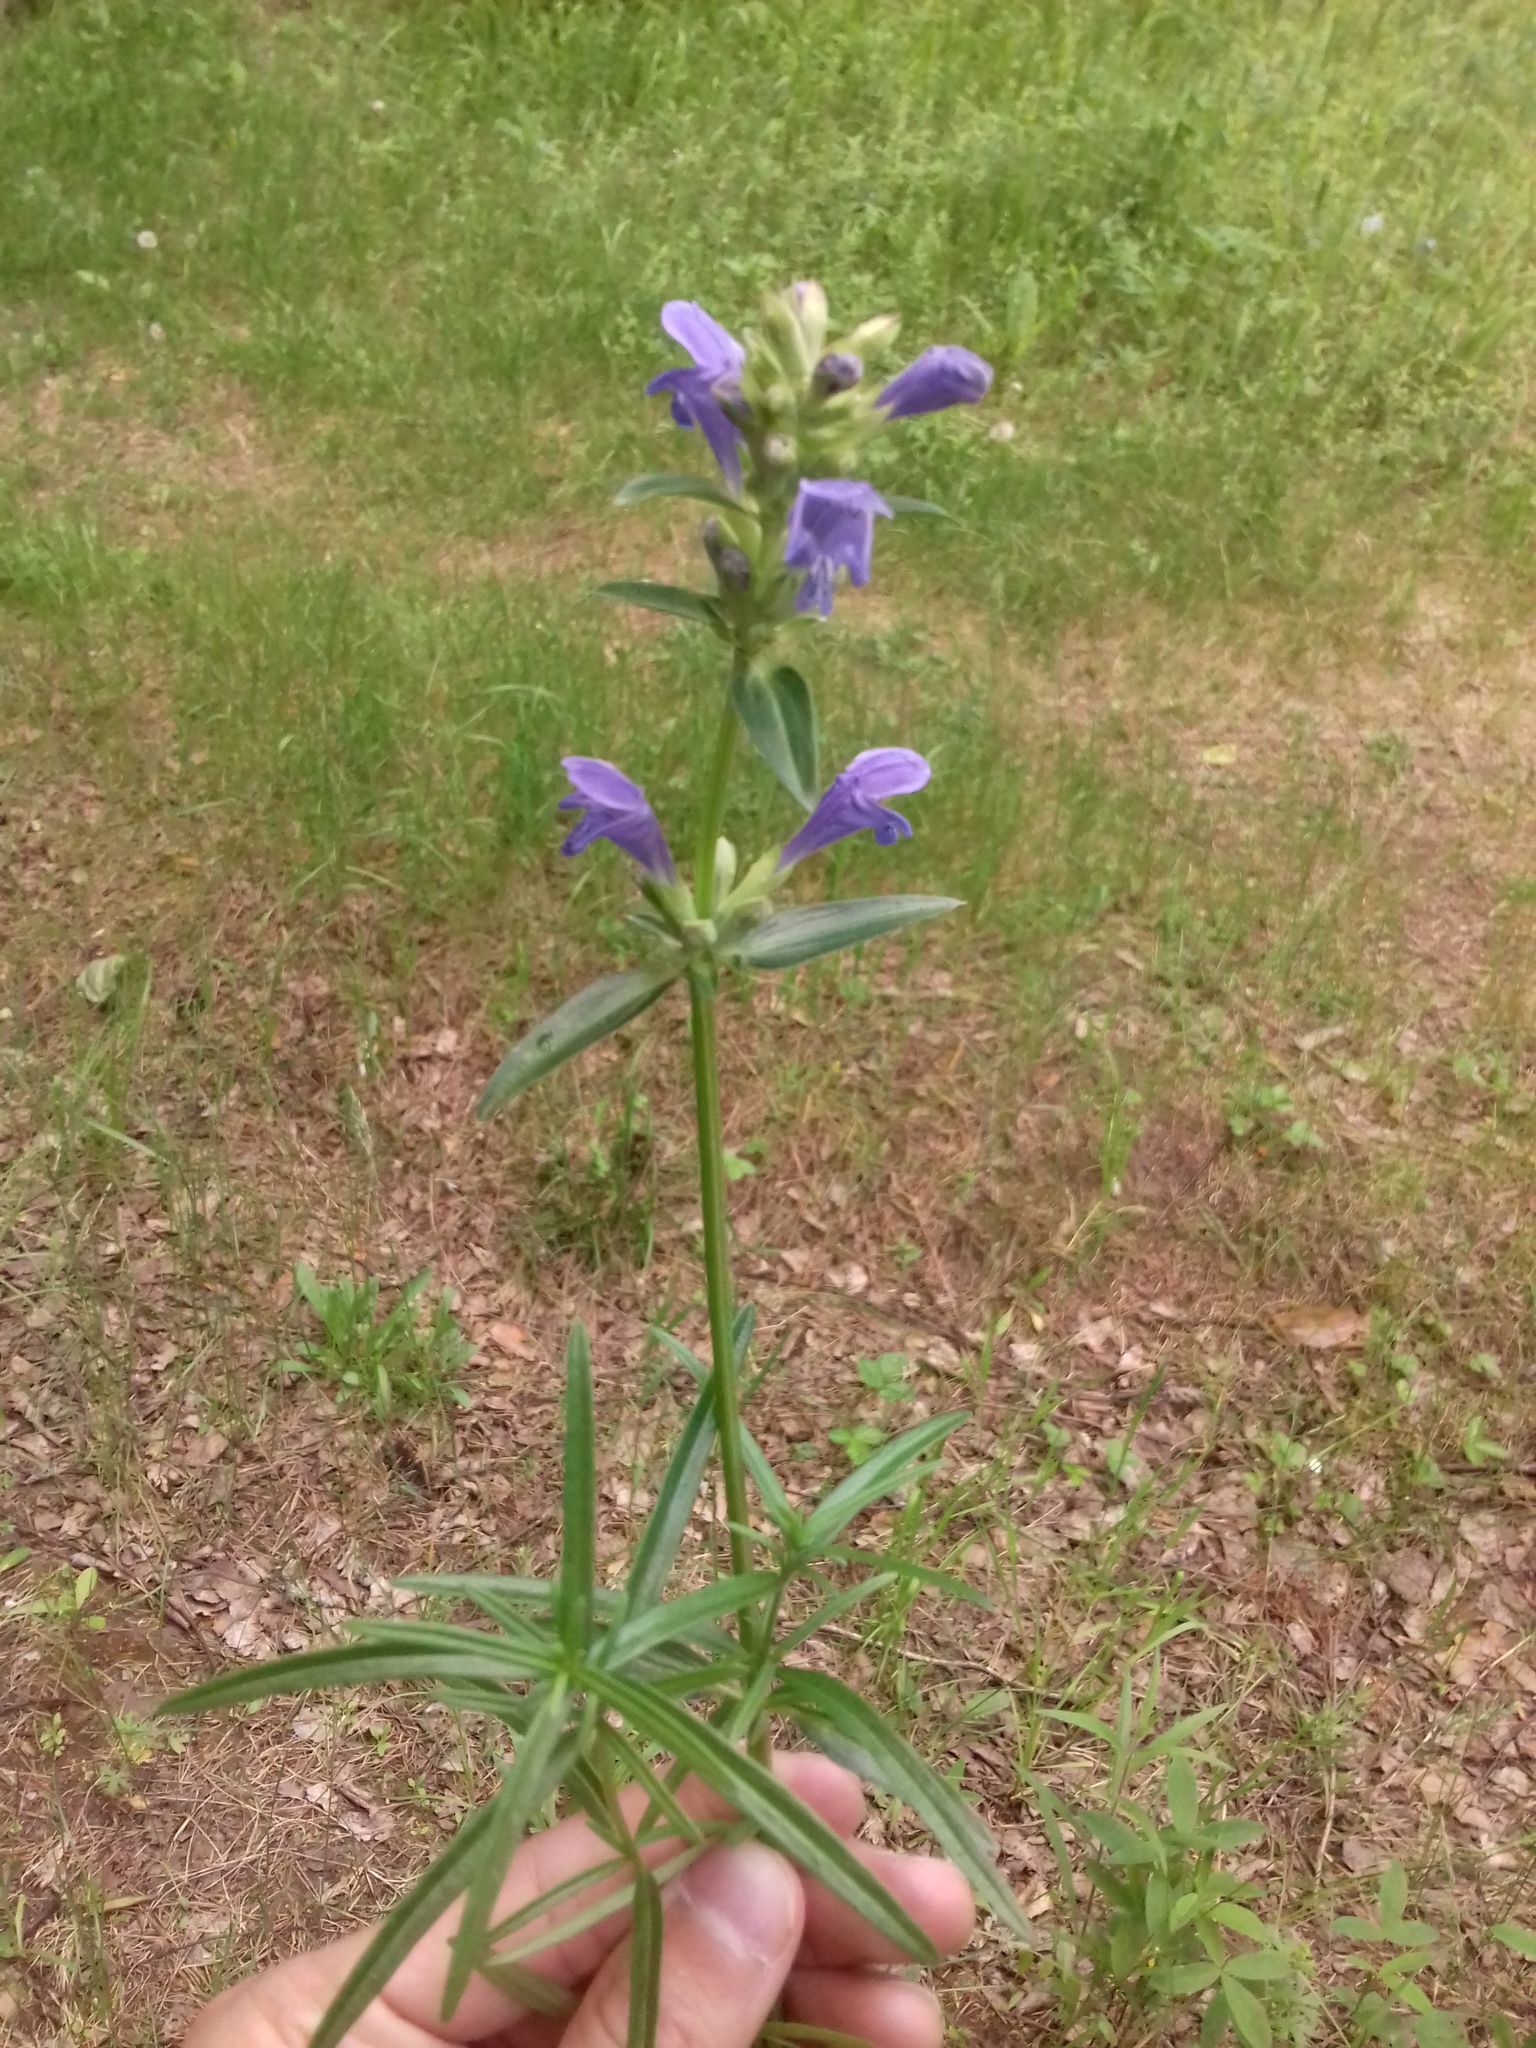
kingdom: Plantae
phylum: Tracheophyta
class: Magnoliopsida
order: Lamiales
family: Lamiaceae
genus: Dracocephalum
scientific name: Dracocephalum ruyschiana
